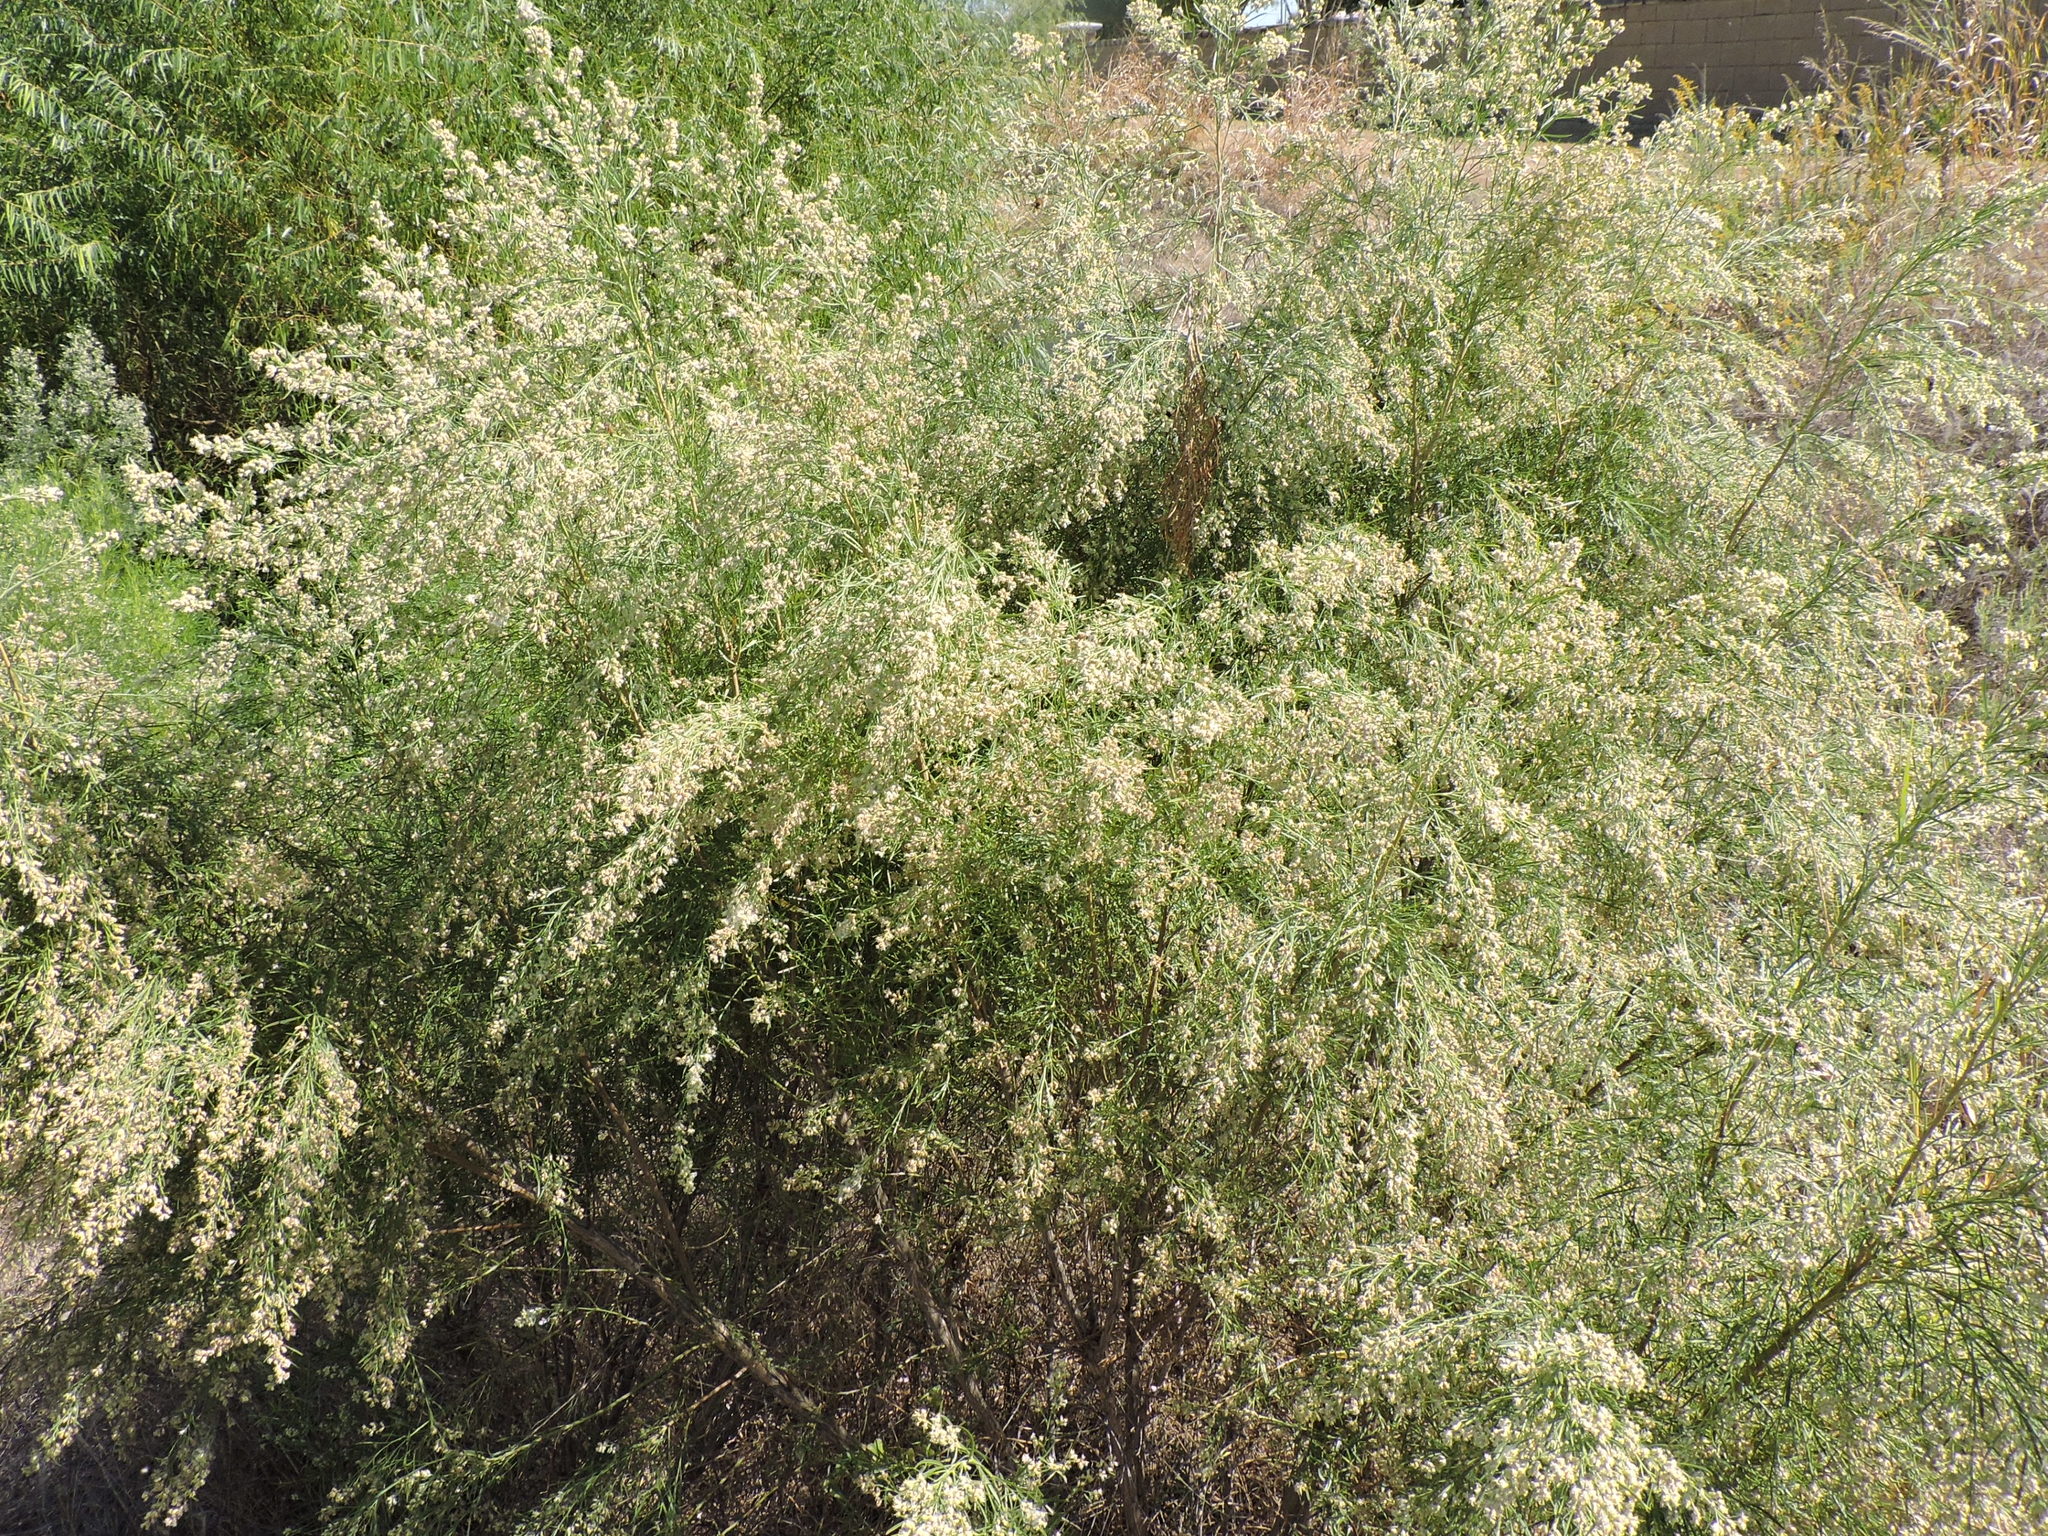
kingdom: Plantae
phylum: Tracheophyta
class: Magnoliopsida
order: Asterales
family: Asteraceae
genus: Baccharis
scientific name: Baccharis neglecta
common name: Roosevelt-weed
